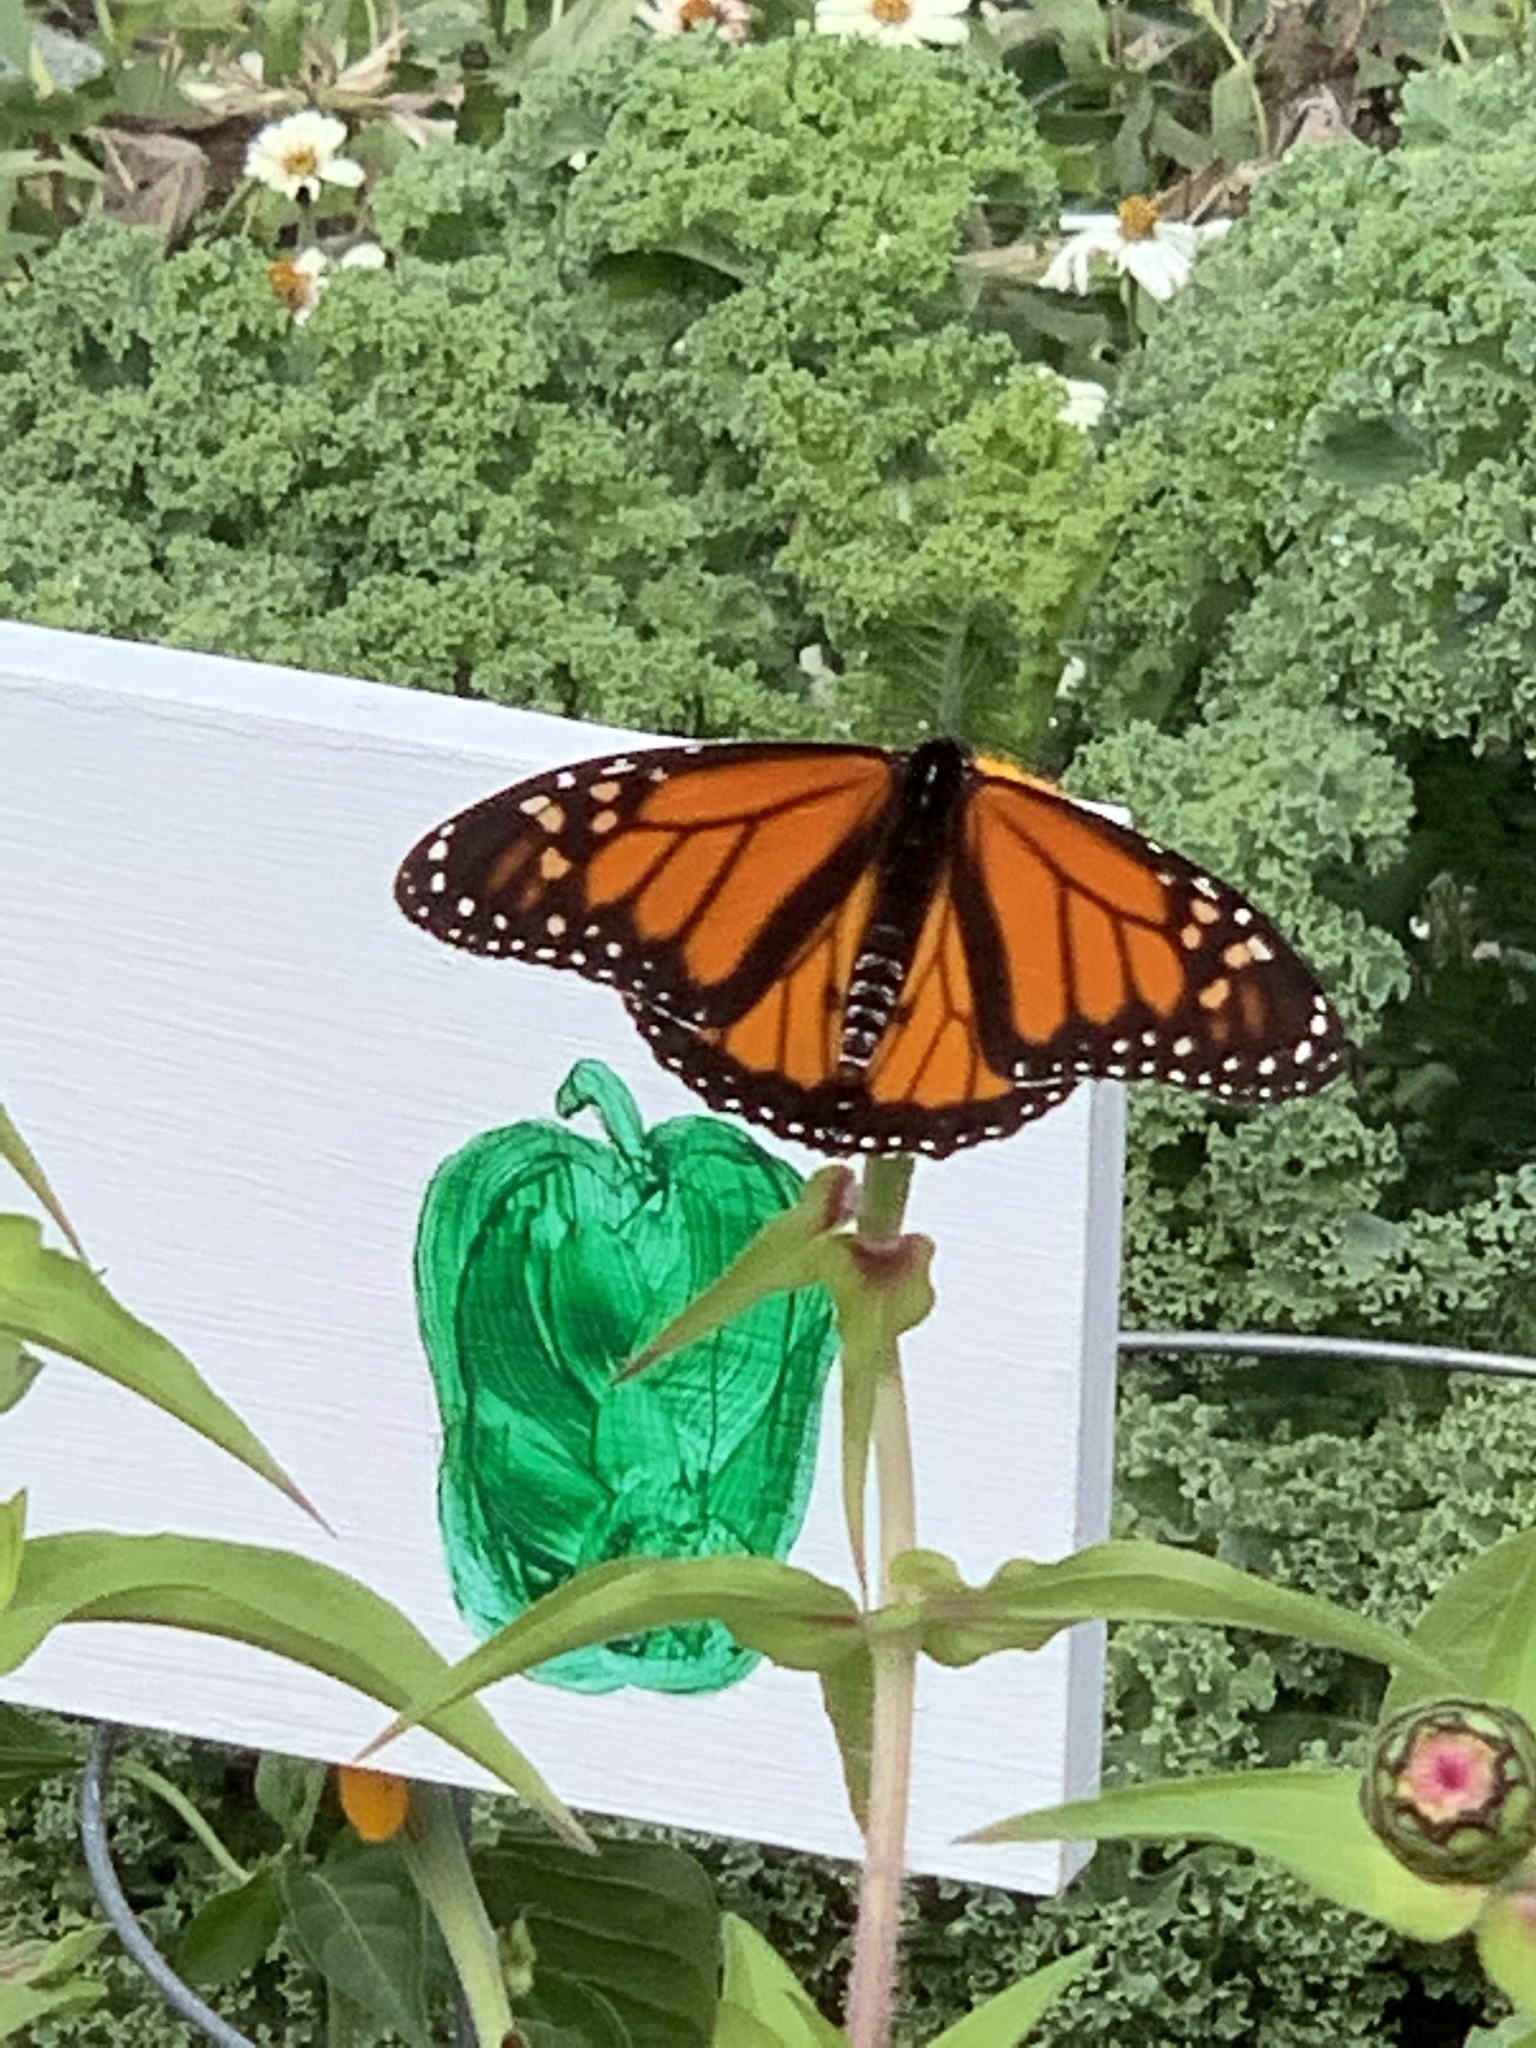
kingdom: Animalia
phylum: Arthropoda
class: Insecta
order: Lepidoptera
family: Nymphalidae
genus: Danaus
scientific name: Danaus plexippus
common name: Monarch
